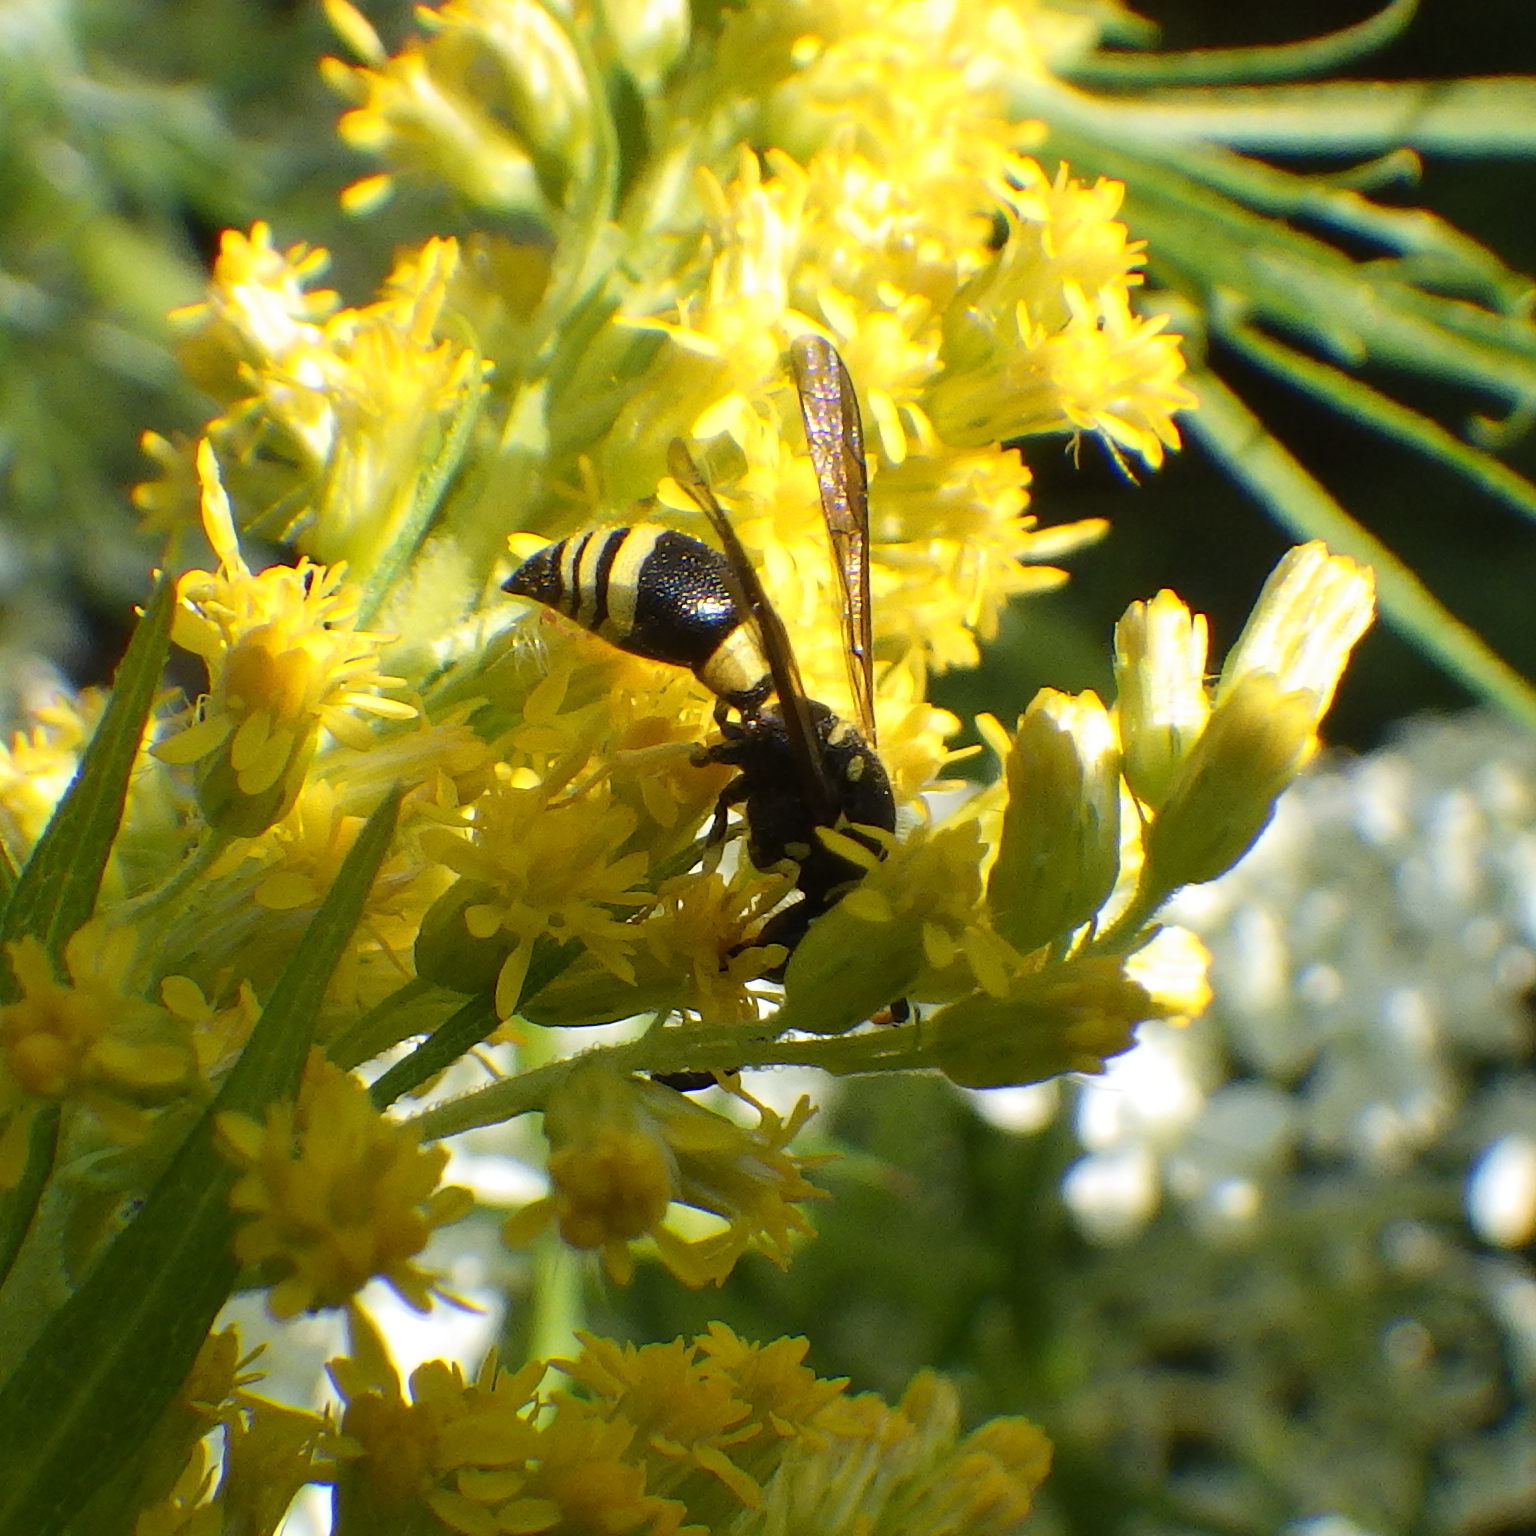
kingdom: Animalia
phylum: Arthropoda
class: Insecta
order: Hymenoptera
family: Vespidae
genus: Ancistrocerus
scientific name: Ancistrocerus gazella
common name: European tube wasp
